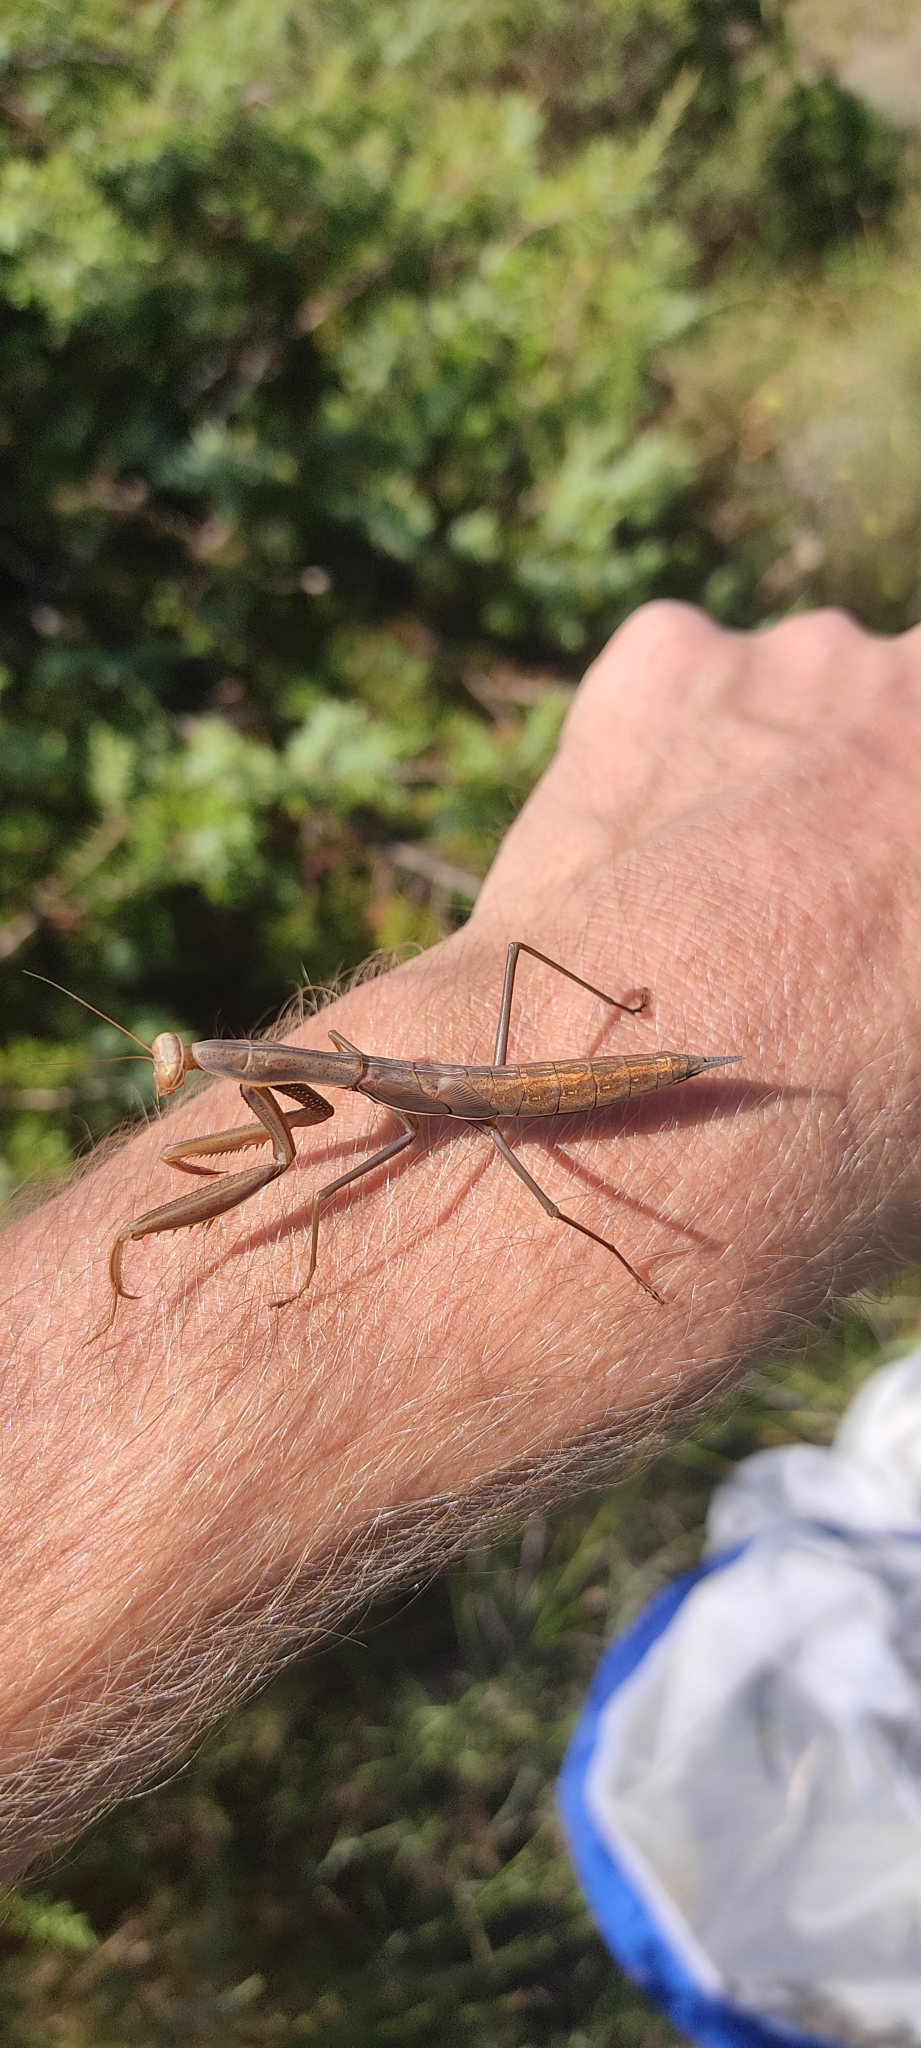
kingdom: Animalia
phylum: Arthropoda
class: Insecta
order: Mantodea
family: Mantidae
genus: Mantis
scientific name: Mantis religiosa
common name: Praying mantis
